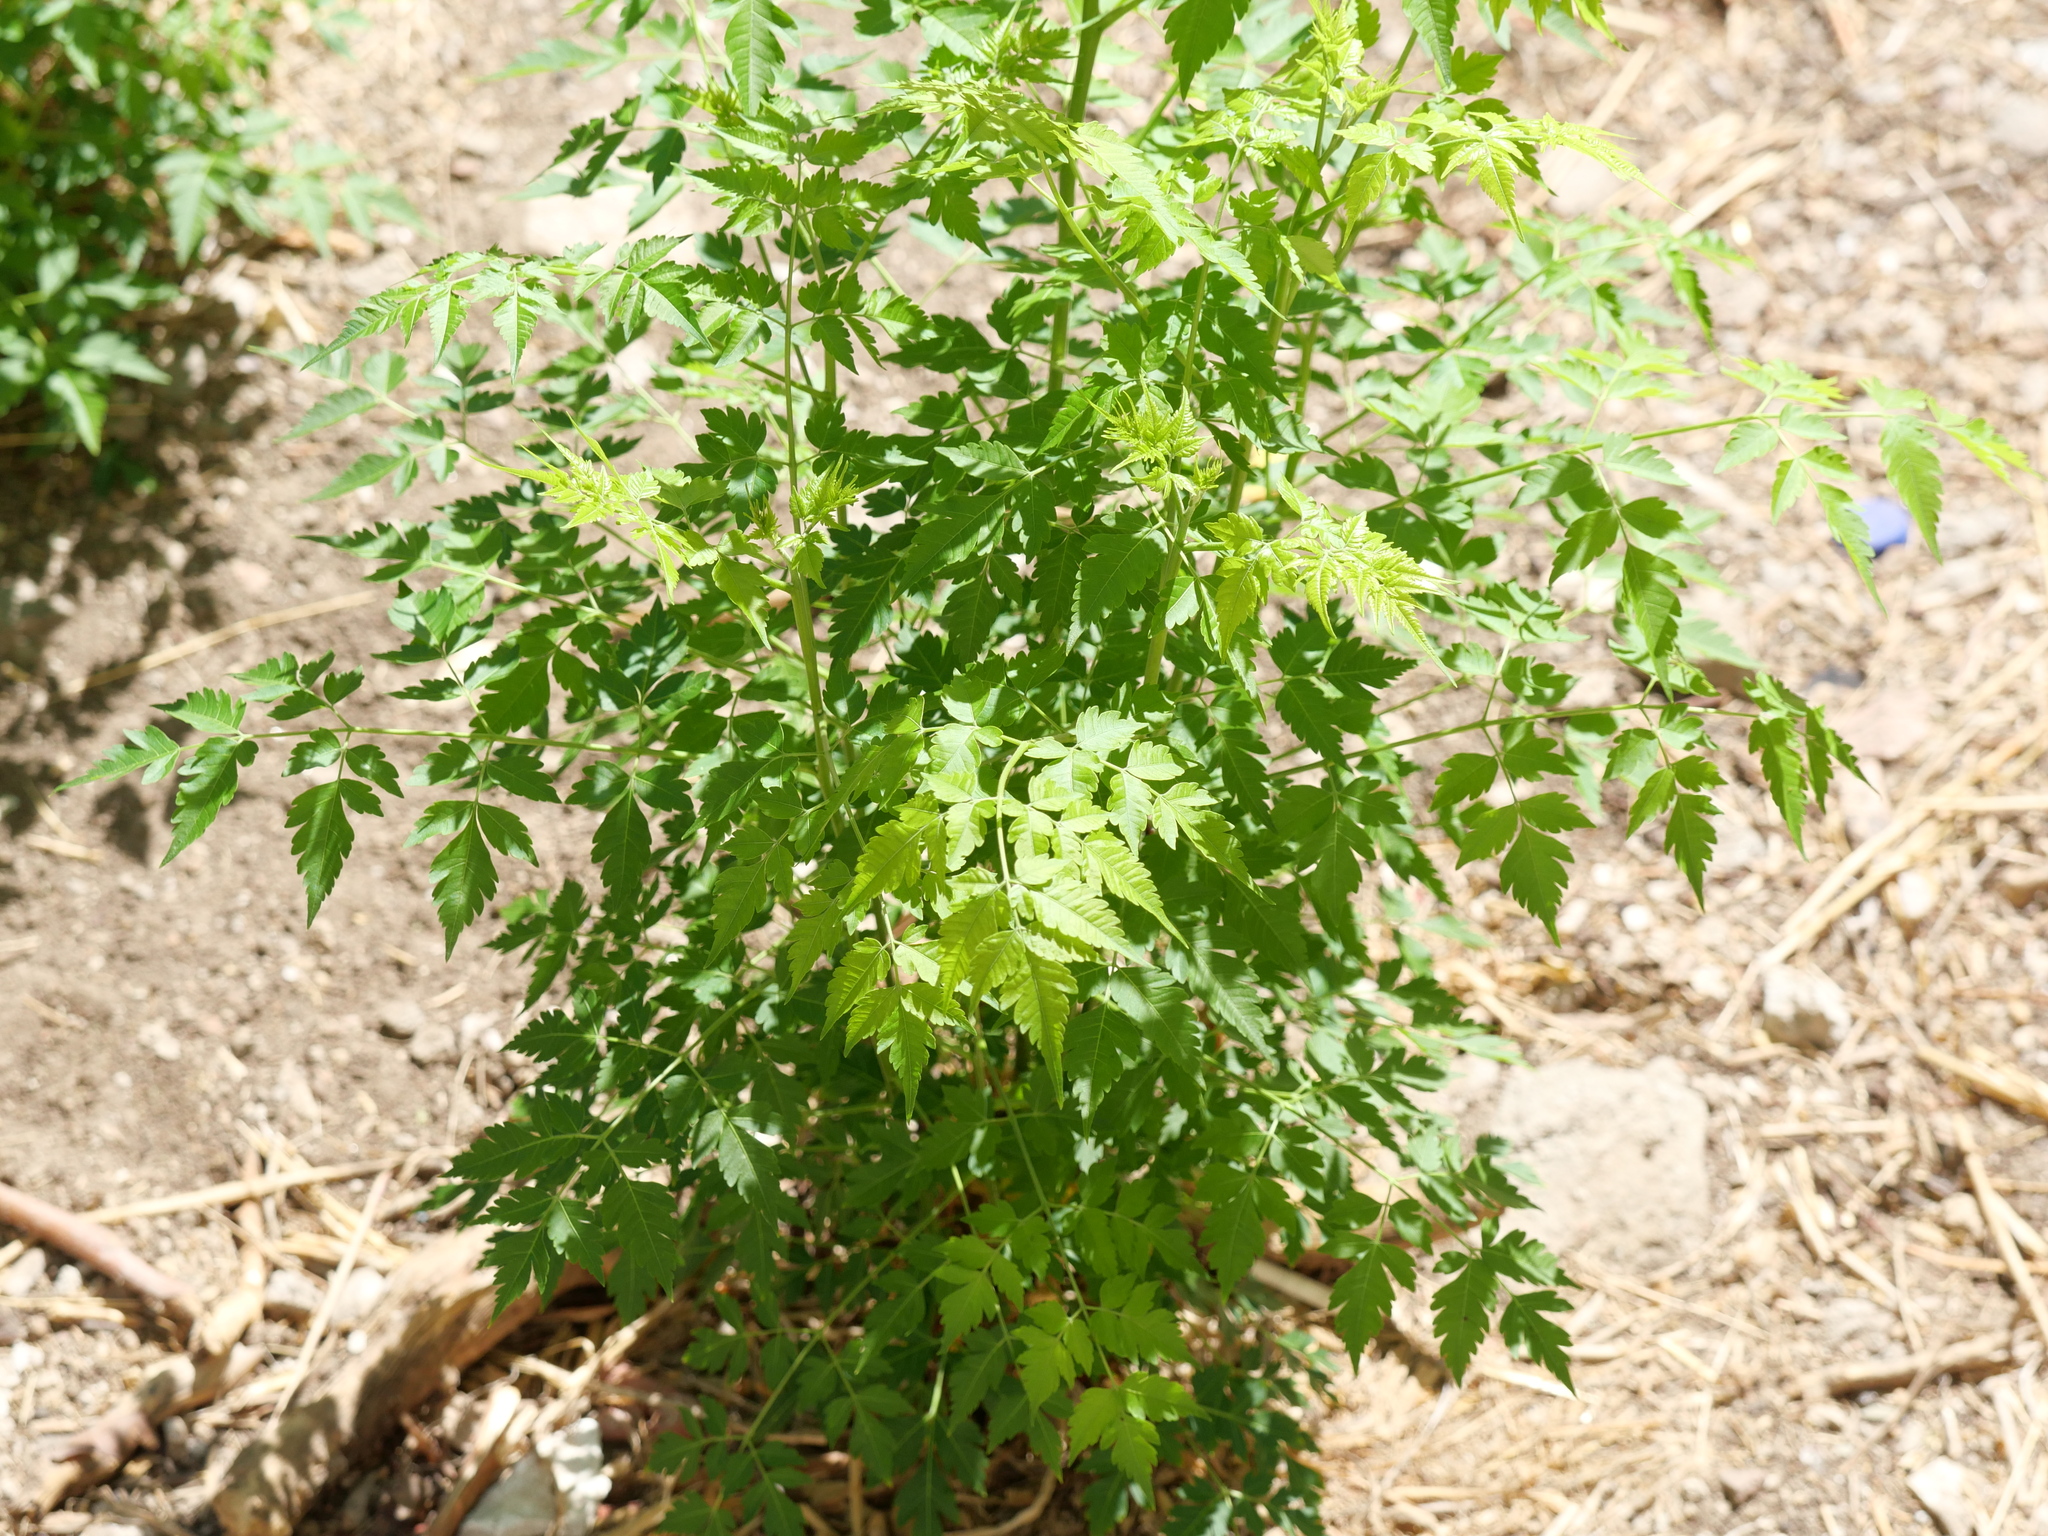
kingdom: Plantae
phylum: Tracheophyta
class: Magnoliopsida
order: Sapindales
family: Meliaceae
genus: Melia
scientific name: Melia azedarach
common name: Chinaberrytree
